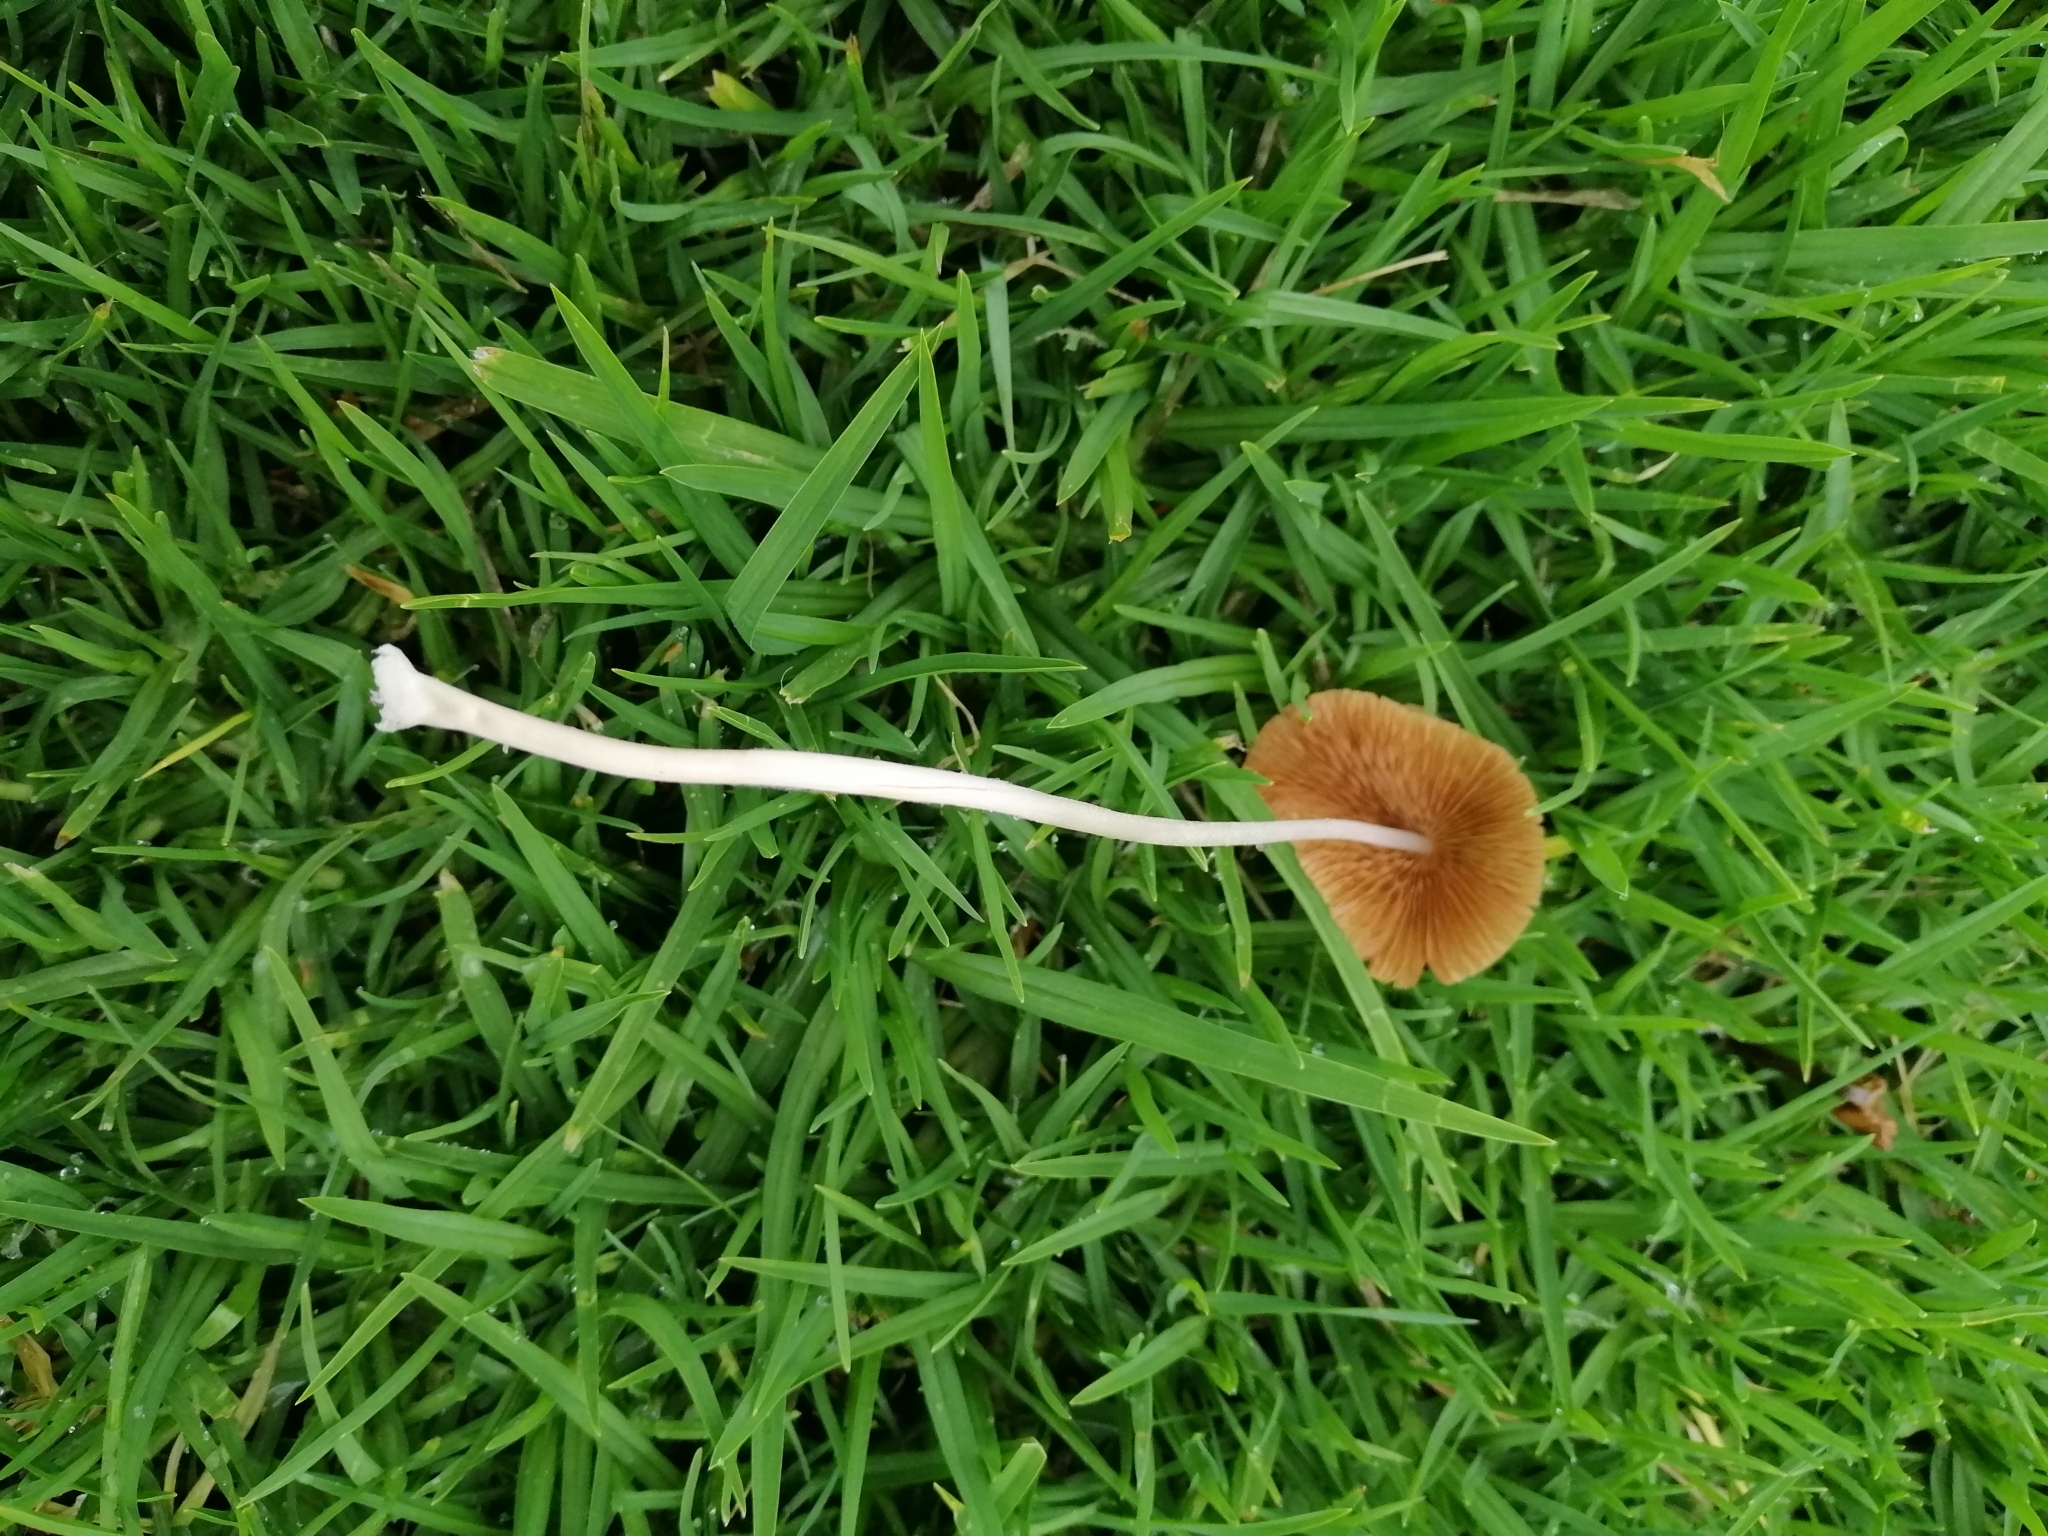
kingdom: Fungi
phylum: Basidiomycota
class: Agaricomycetes
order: Agaricales
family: Bolbitiaceae
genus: Conocybe
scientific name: Conocybe apala
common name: Milky conecap
